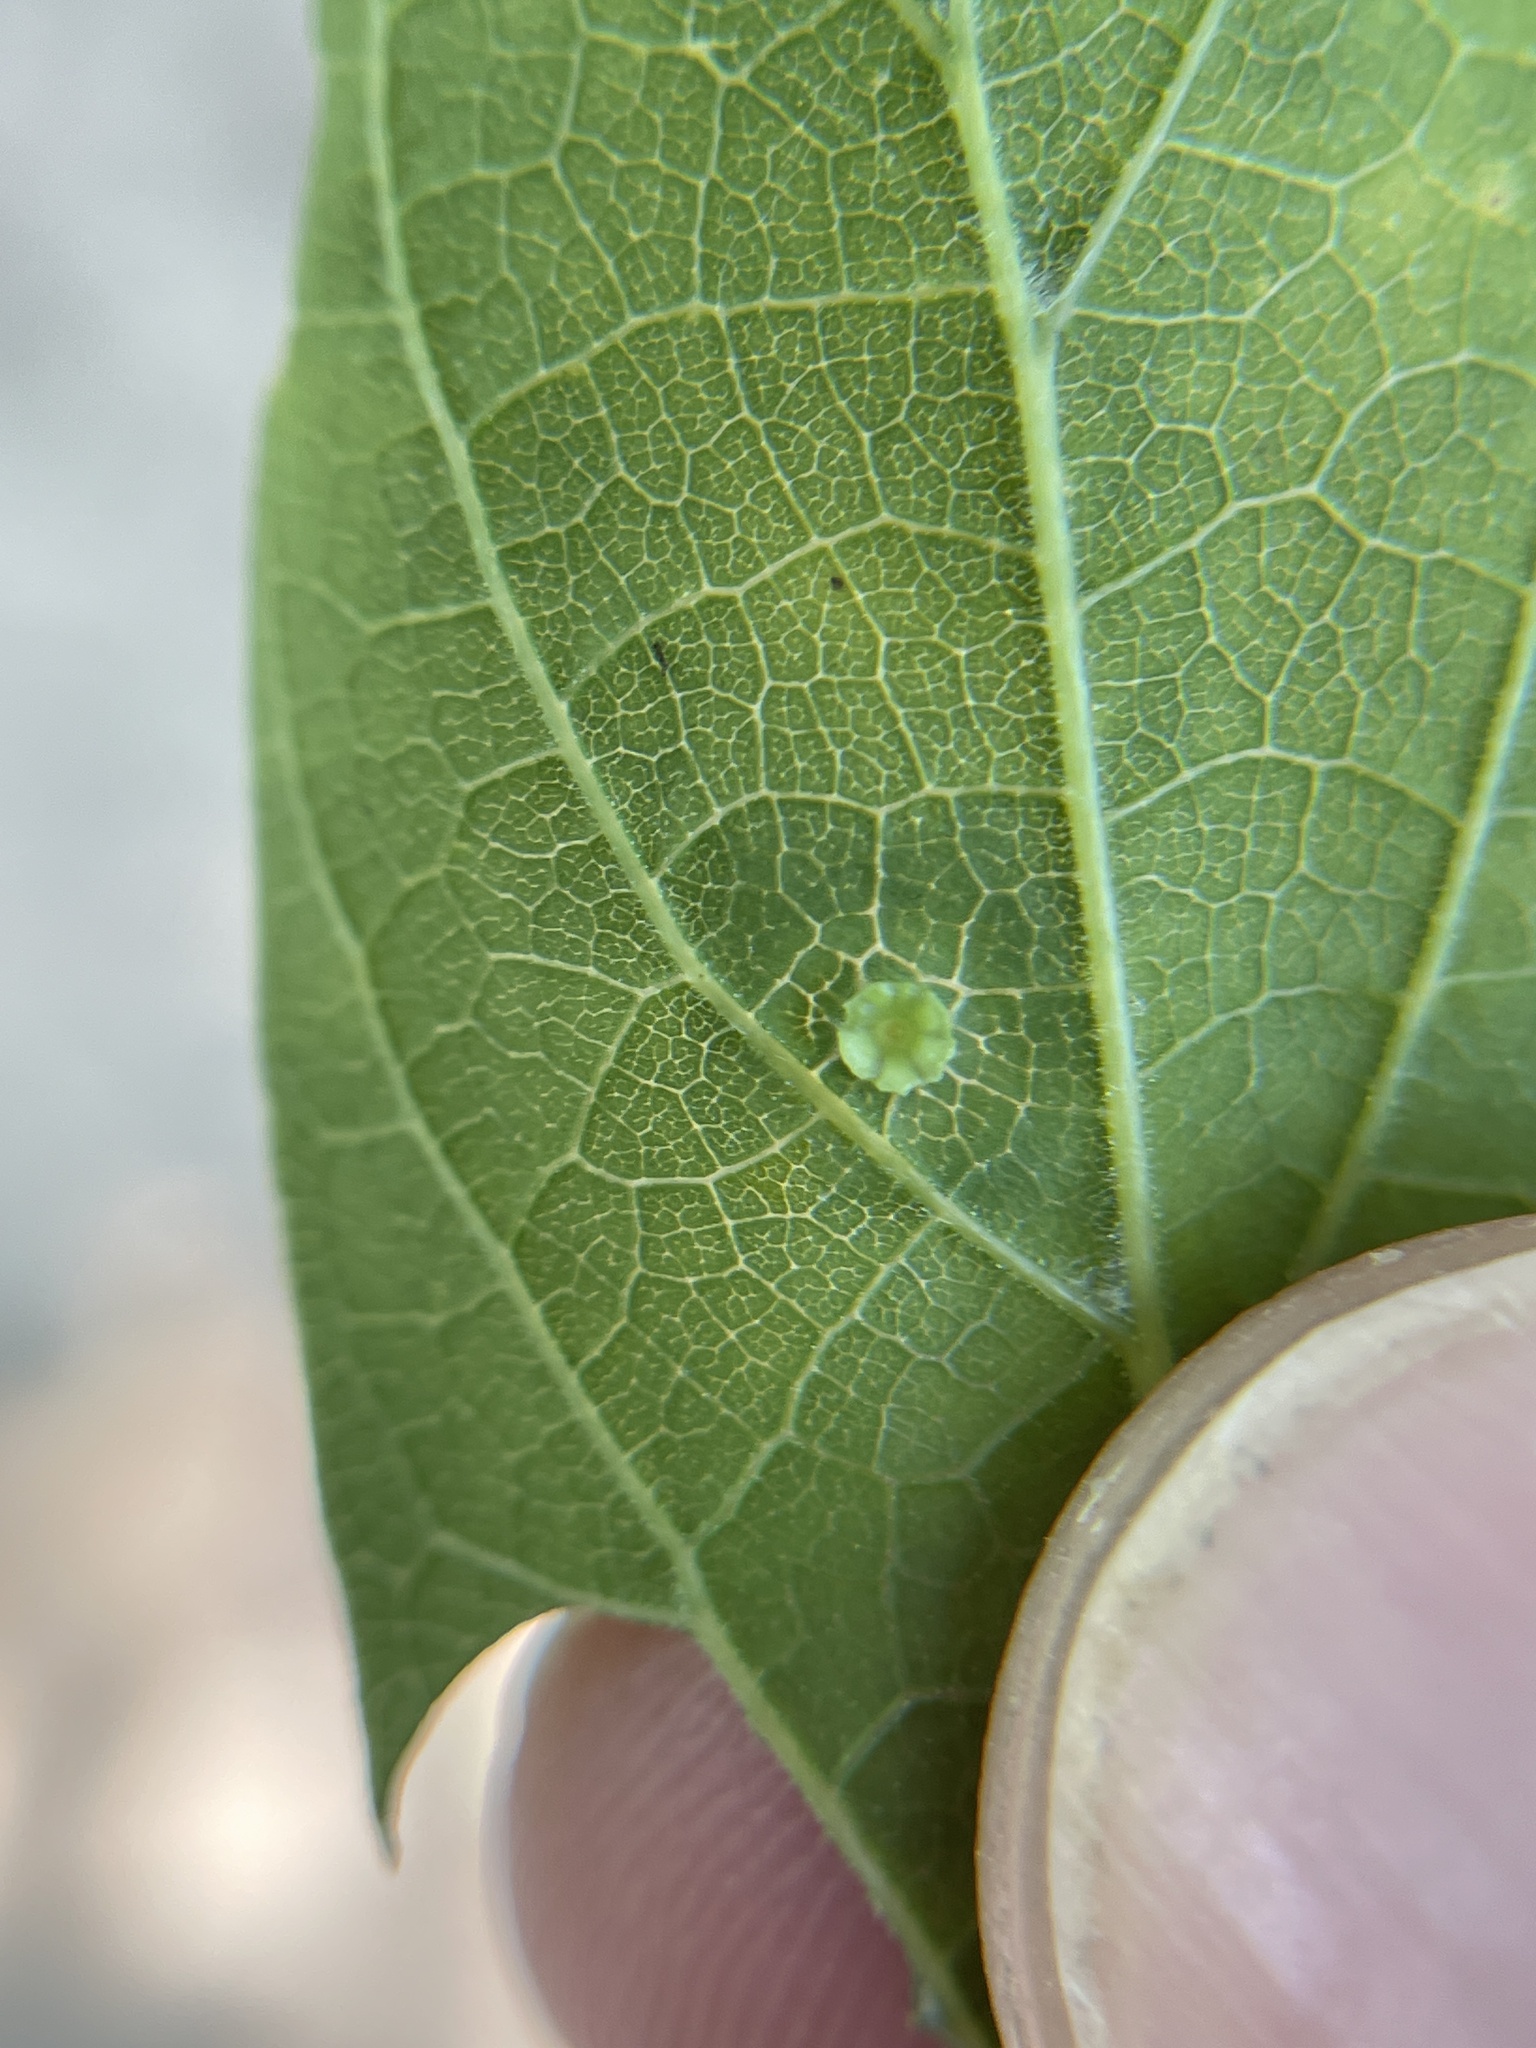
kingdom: Animalia
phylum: Arthropoda
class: Insecta
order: Hemiptera
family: Aphalaridae
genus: Pachypsylla
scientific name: Pachypsylla celtidisasterisca
